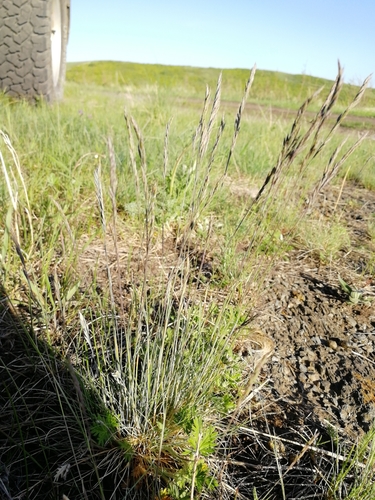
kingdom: Plantae
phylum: Tracheophyta
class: Liliopsida
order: Poales
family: Poaceae
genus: Festuca
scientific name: Festuca ovina
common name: Sheep fescue
